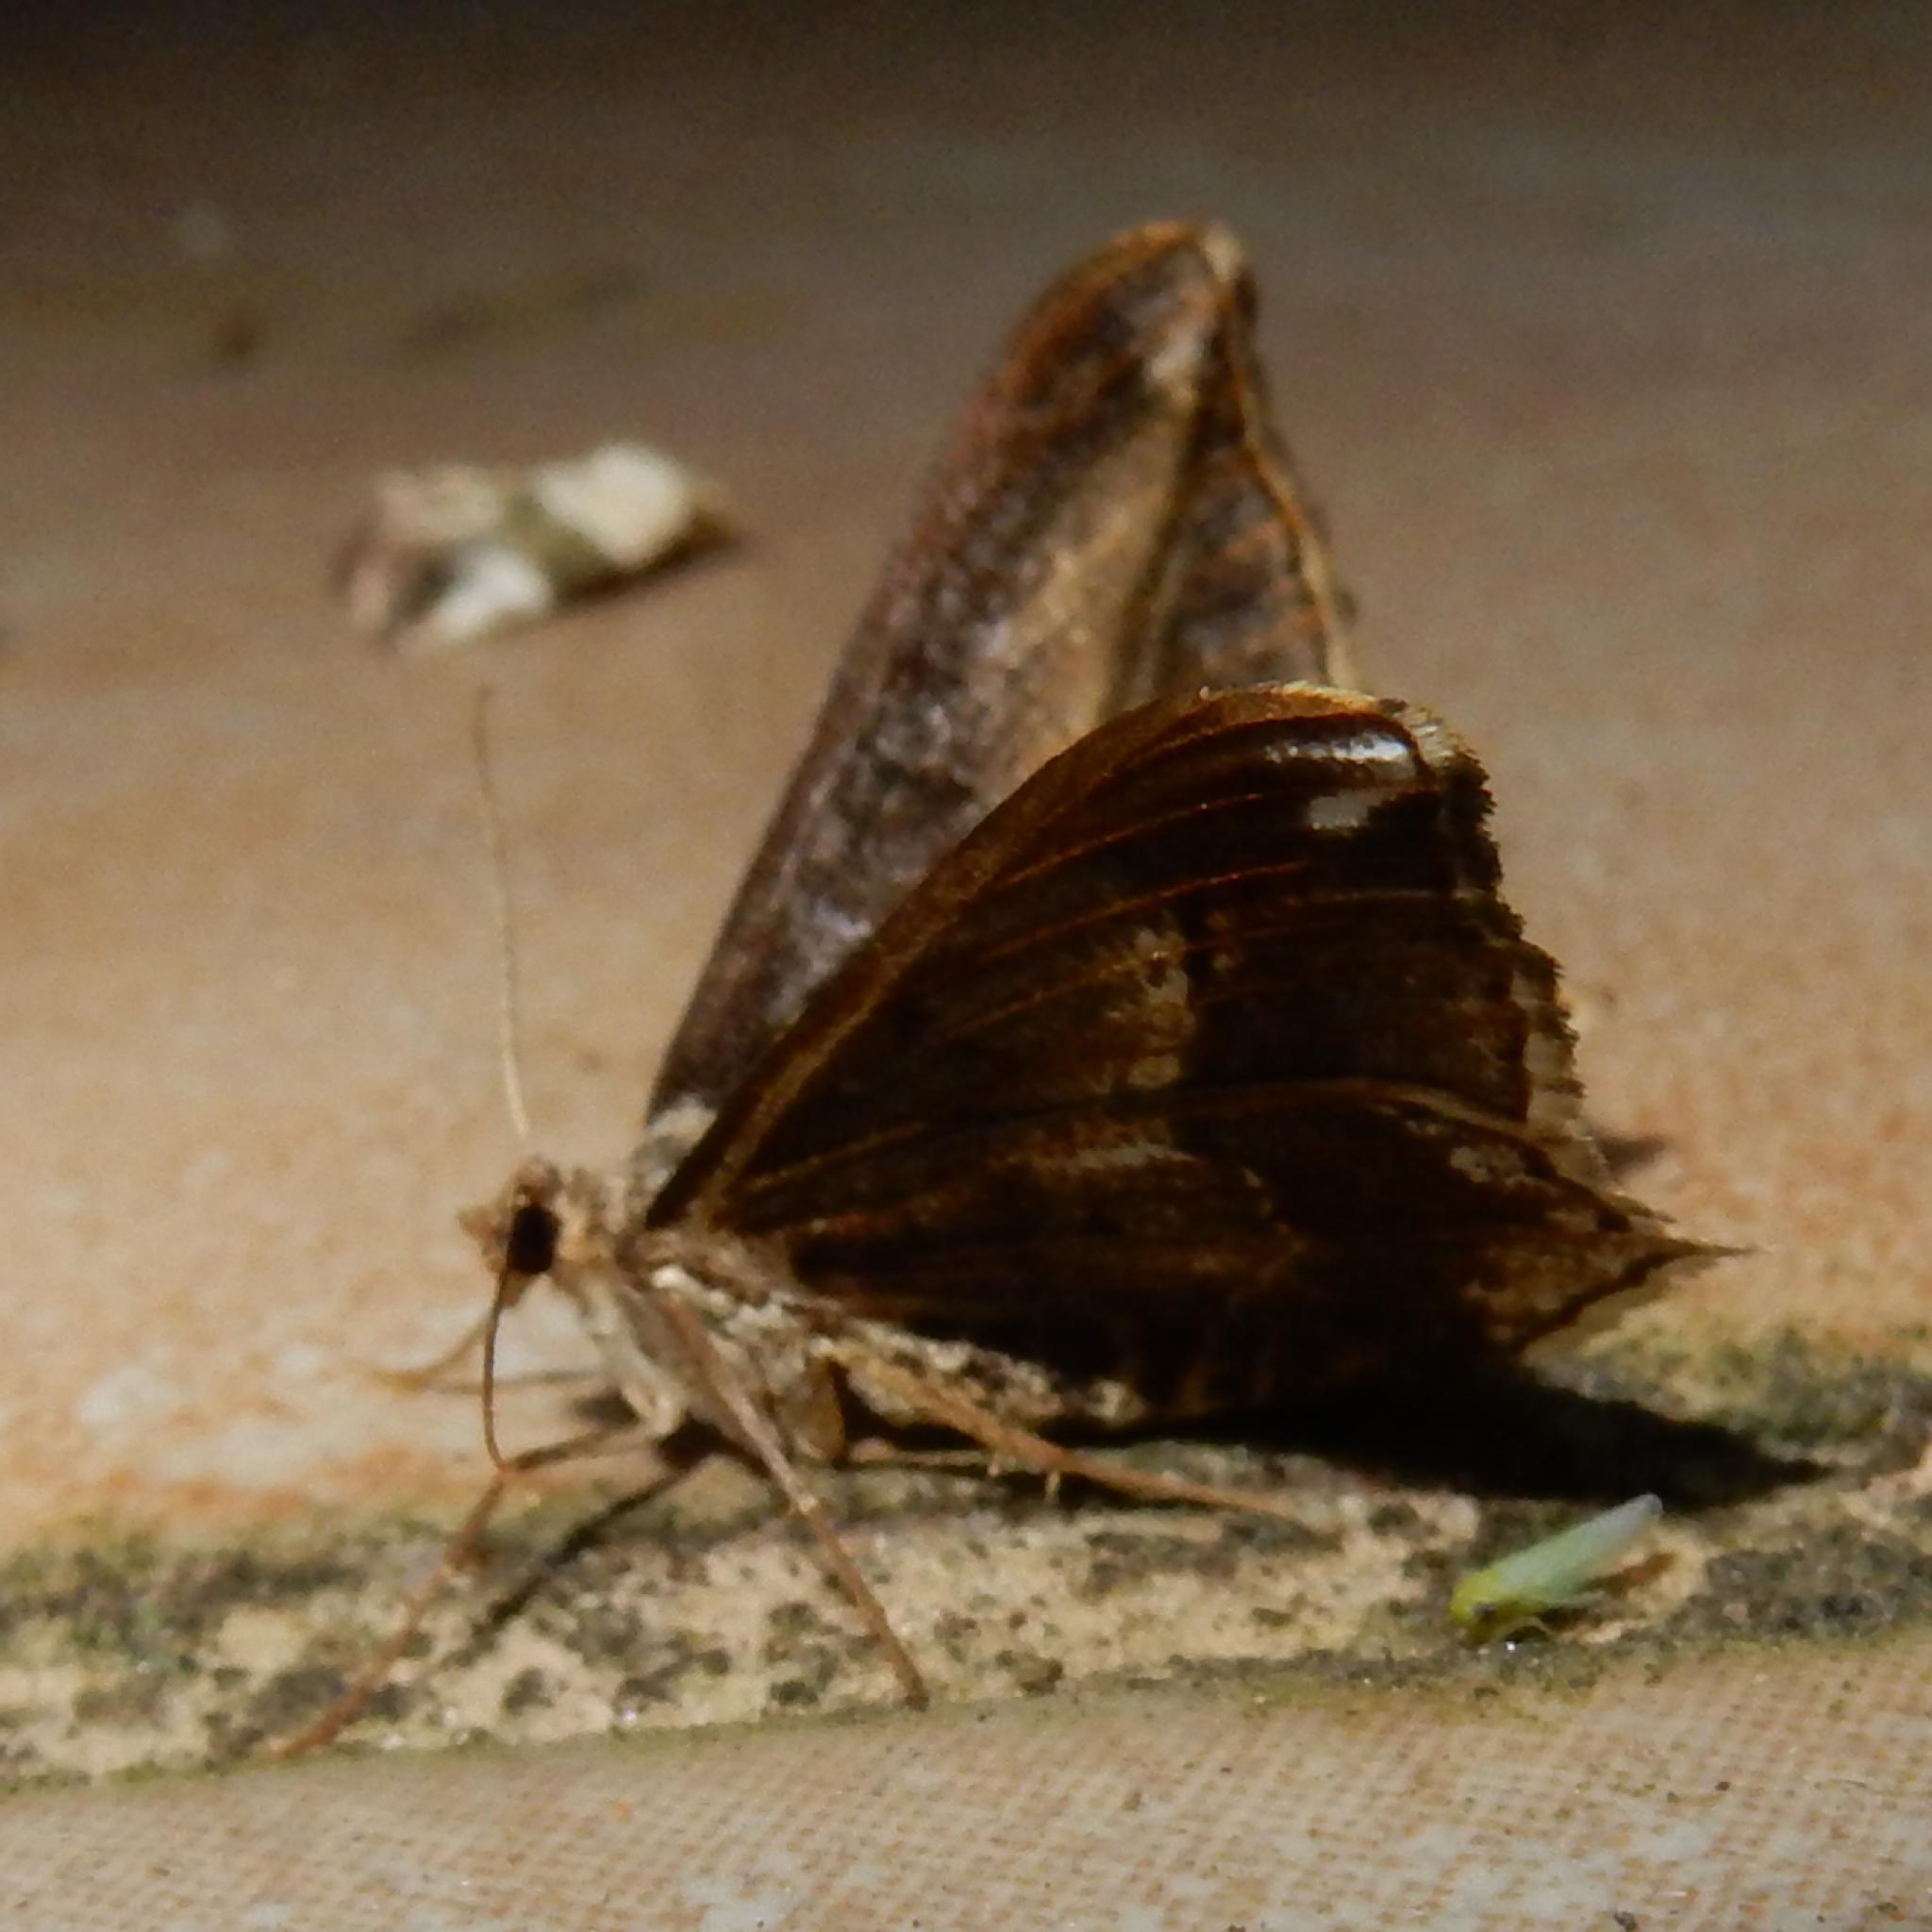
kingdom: Animalia
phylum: Arthropoda
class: Insecta
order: Lepidoptera
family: Geometridae
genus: Chiasmia
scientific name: Chiasmia rectistriaria
